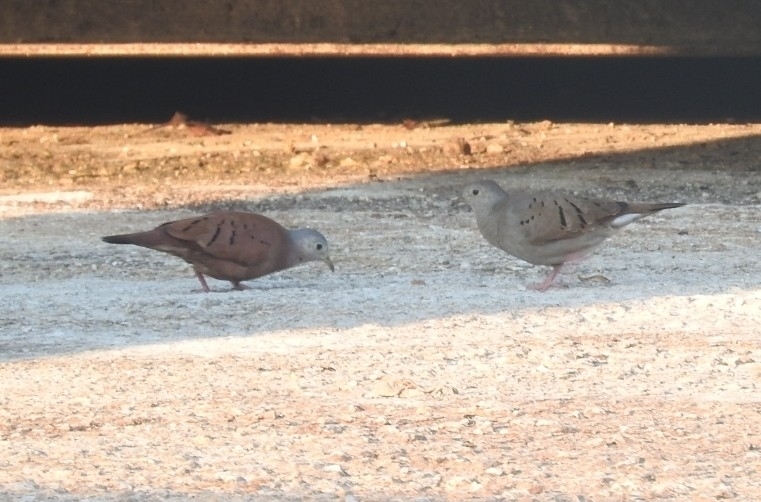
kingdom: Animalia
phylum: Chordata
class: Aves
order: Columbiformes
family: Columbidae
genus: Columbina
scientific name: Columbina talpacoti
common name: Ruddy ground dove
